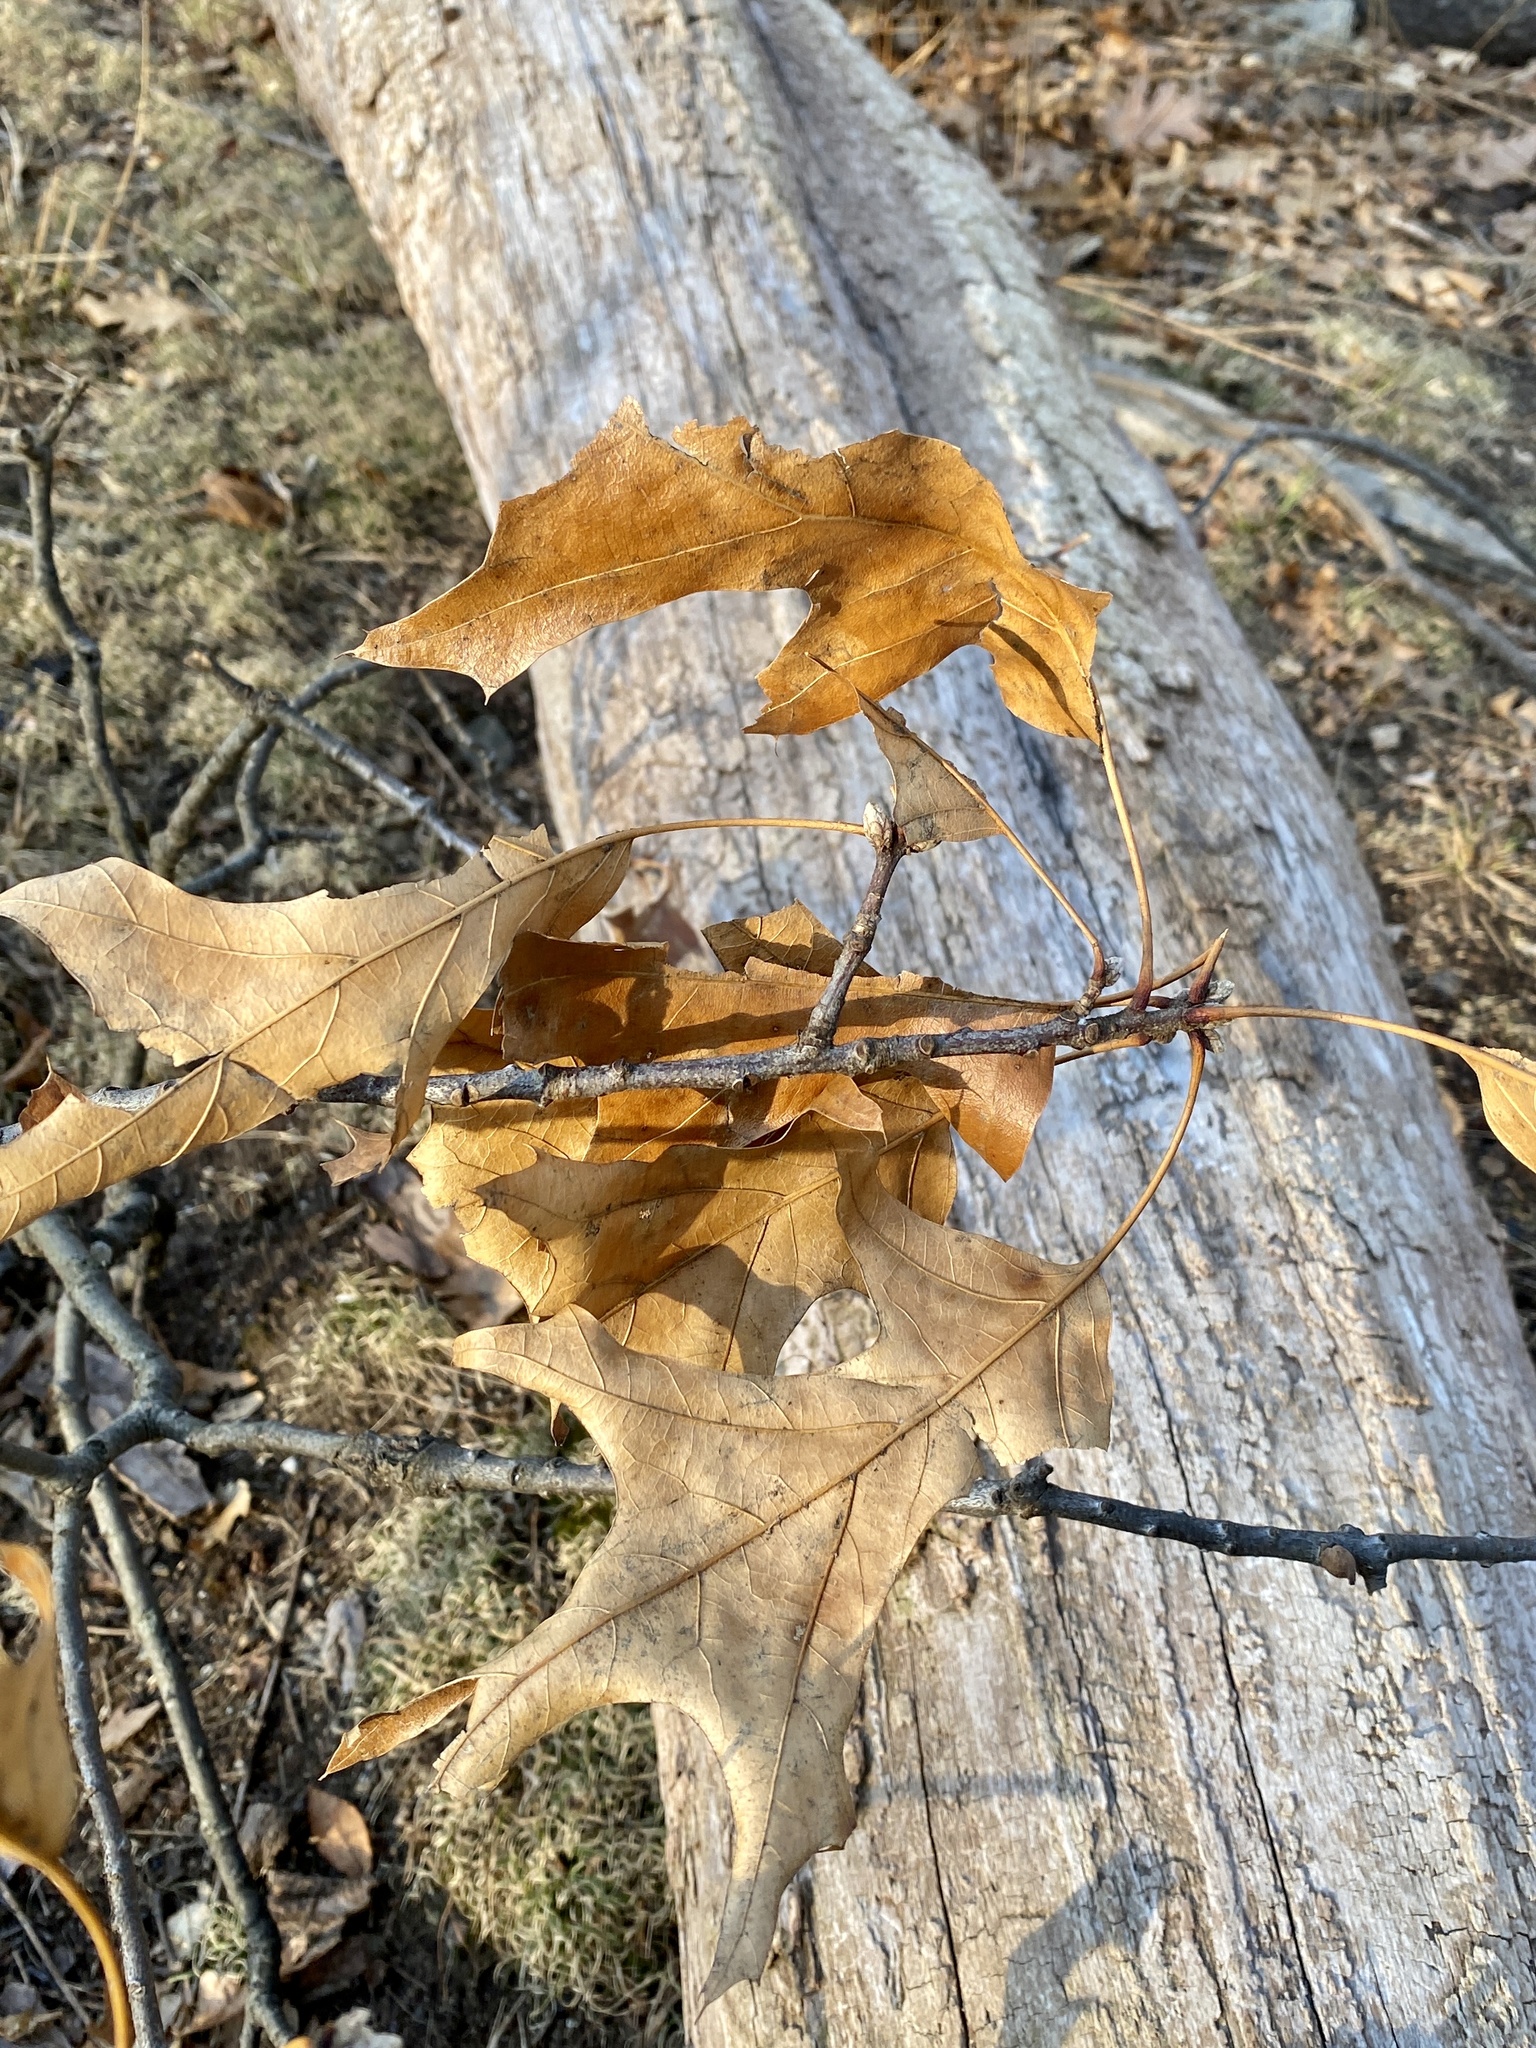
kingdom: Plantae
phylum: Tracheophyta
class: Magnoliopsida
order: Fagales
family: Fagaceae
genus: Quercus
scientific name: Quercus velutina
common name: Black oak
